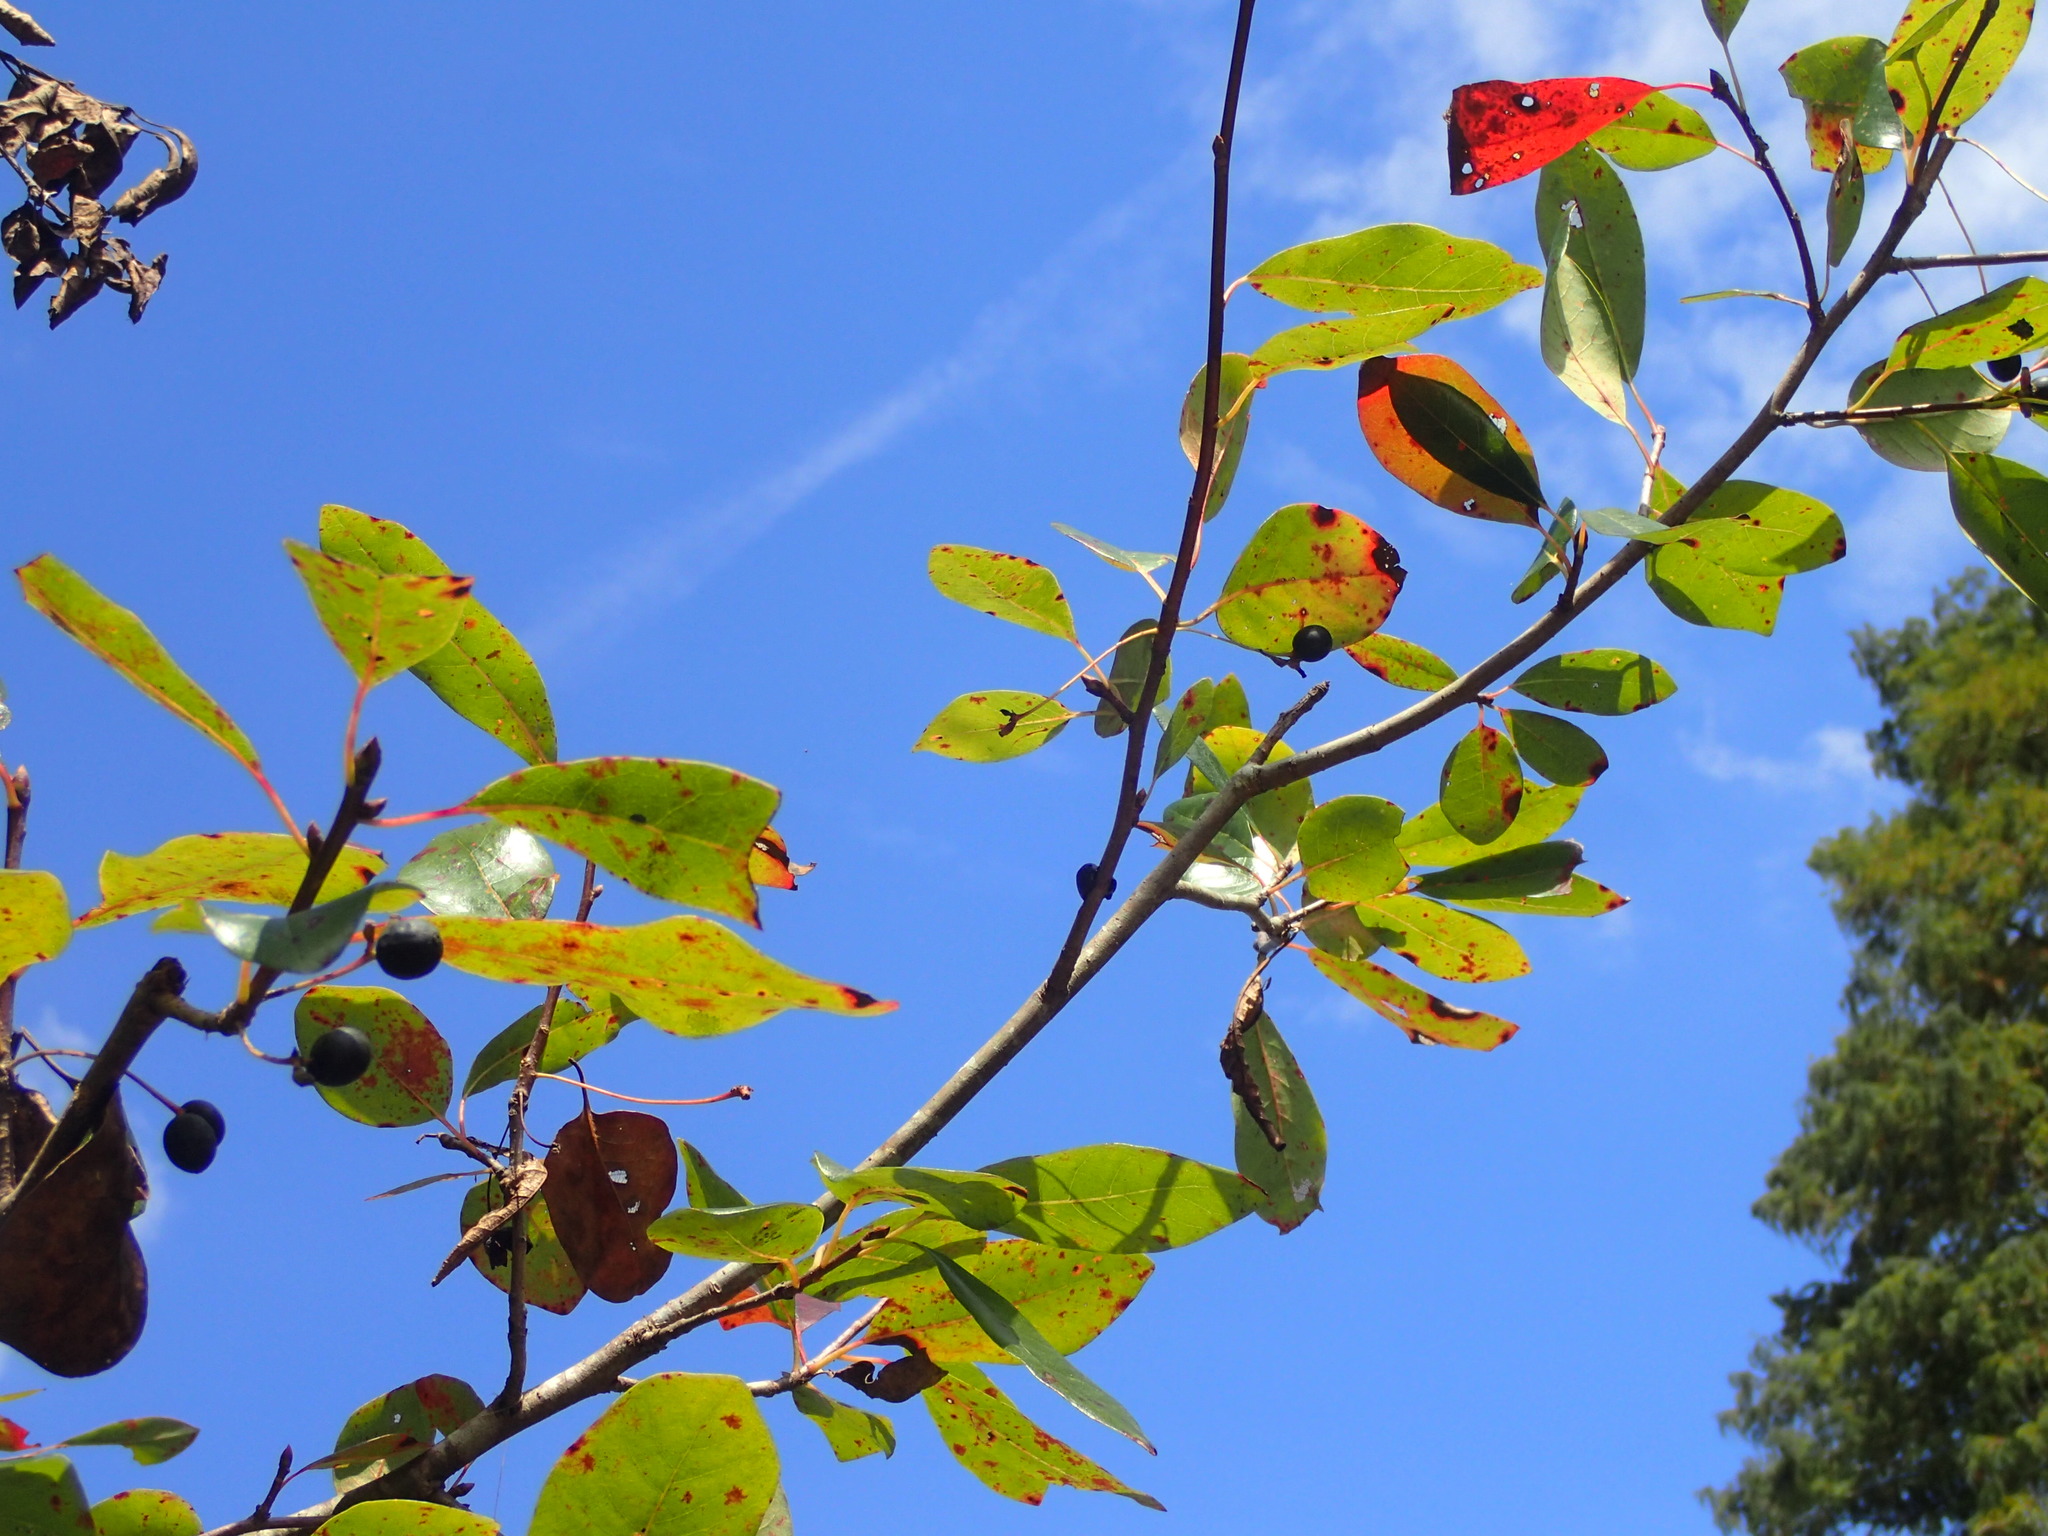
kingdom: Plantae
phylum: Tracheophyta
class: Magnoliopsida
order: Cornales
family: Nyssaceae
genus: Nyssa
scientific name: Nyssa biflora
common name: Swamp blackgum
